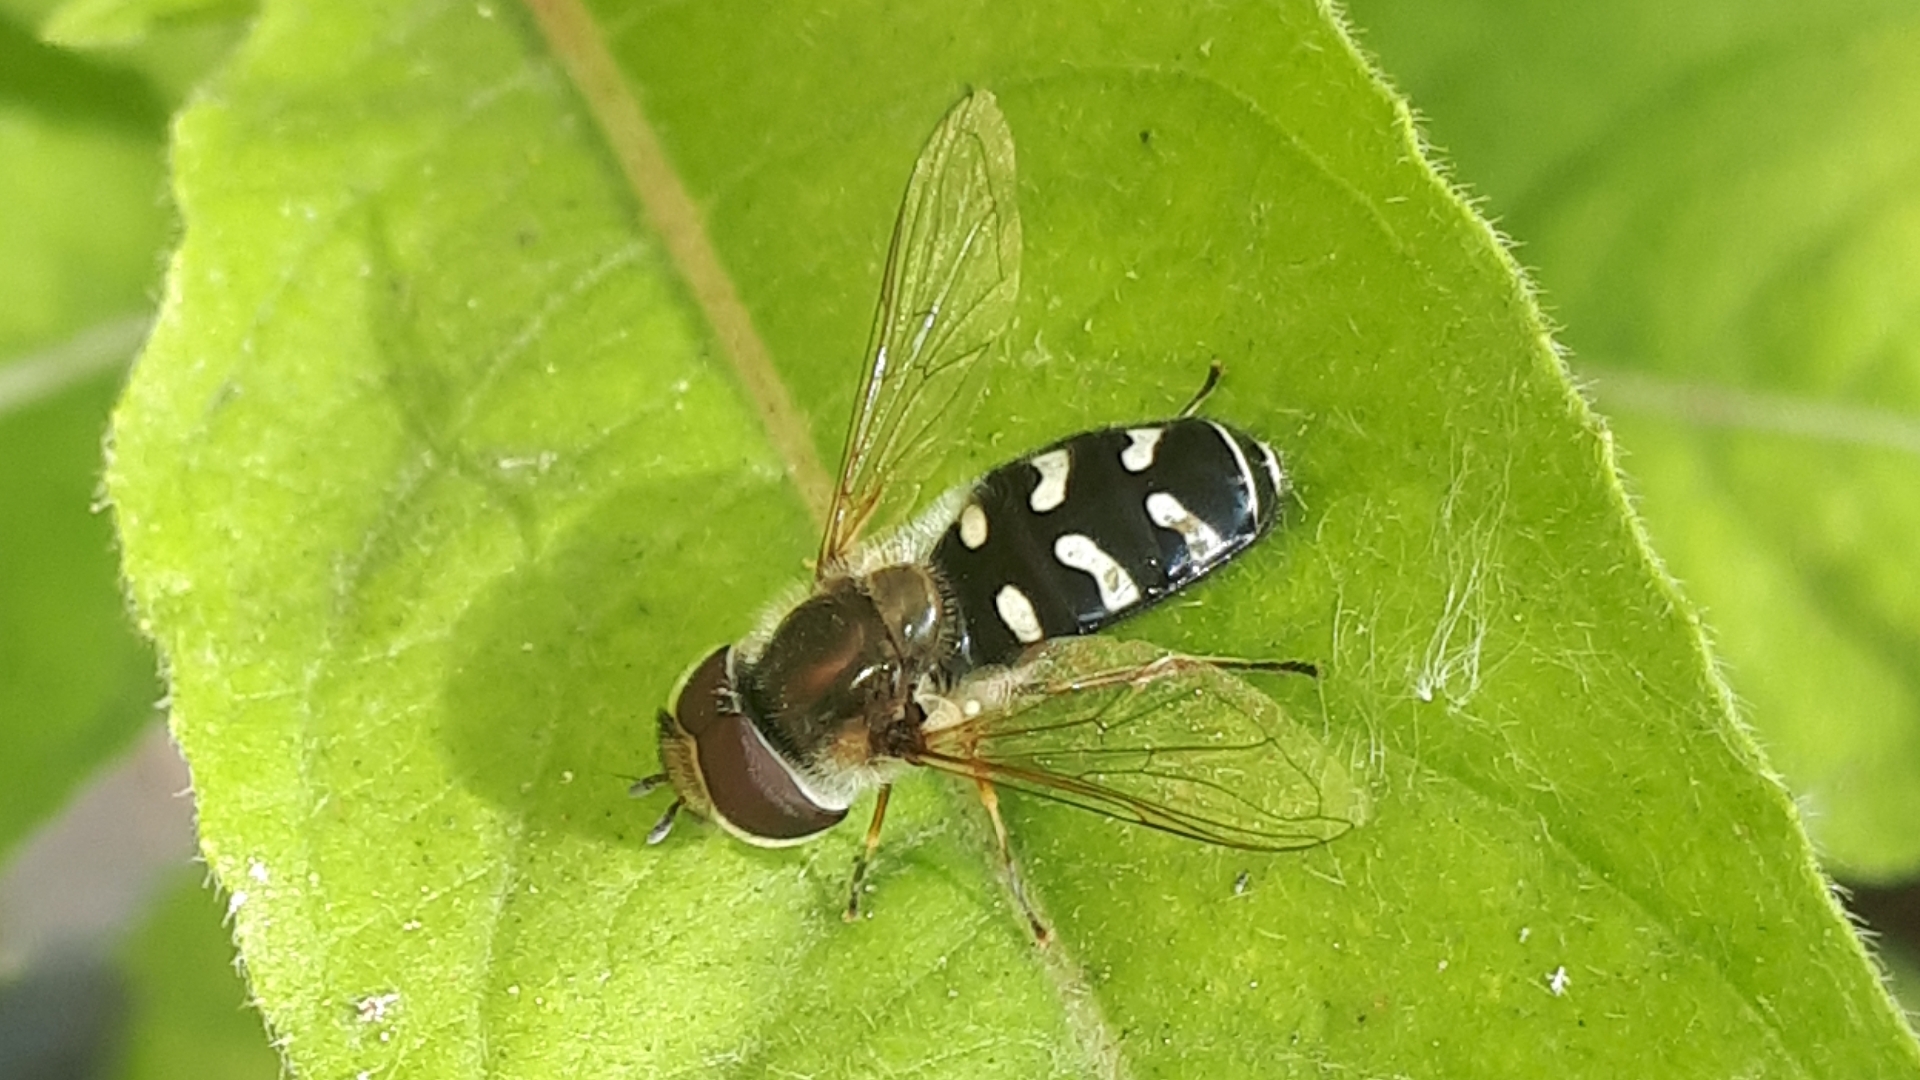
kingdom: Animalia
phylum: Arthropoda
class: Insecta
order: Diptera
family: Syrphidae
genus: Scaeva
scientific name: Scaeva pyrastri
